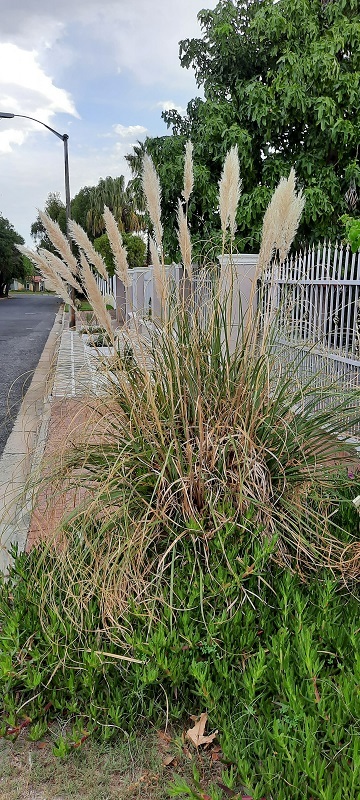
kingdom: Plantae
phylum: Tracheophyta
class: Liliopsida
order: Poales
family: Poaceae
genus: Cortaderia
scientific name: Cortaderia selloana
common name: Uruguayan pampas grass
